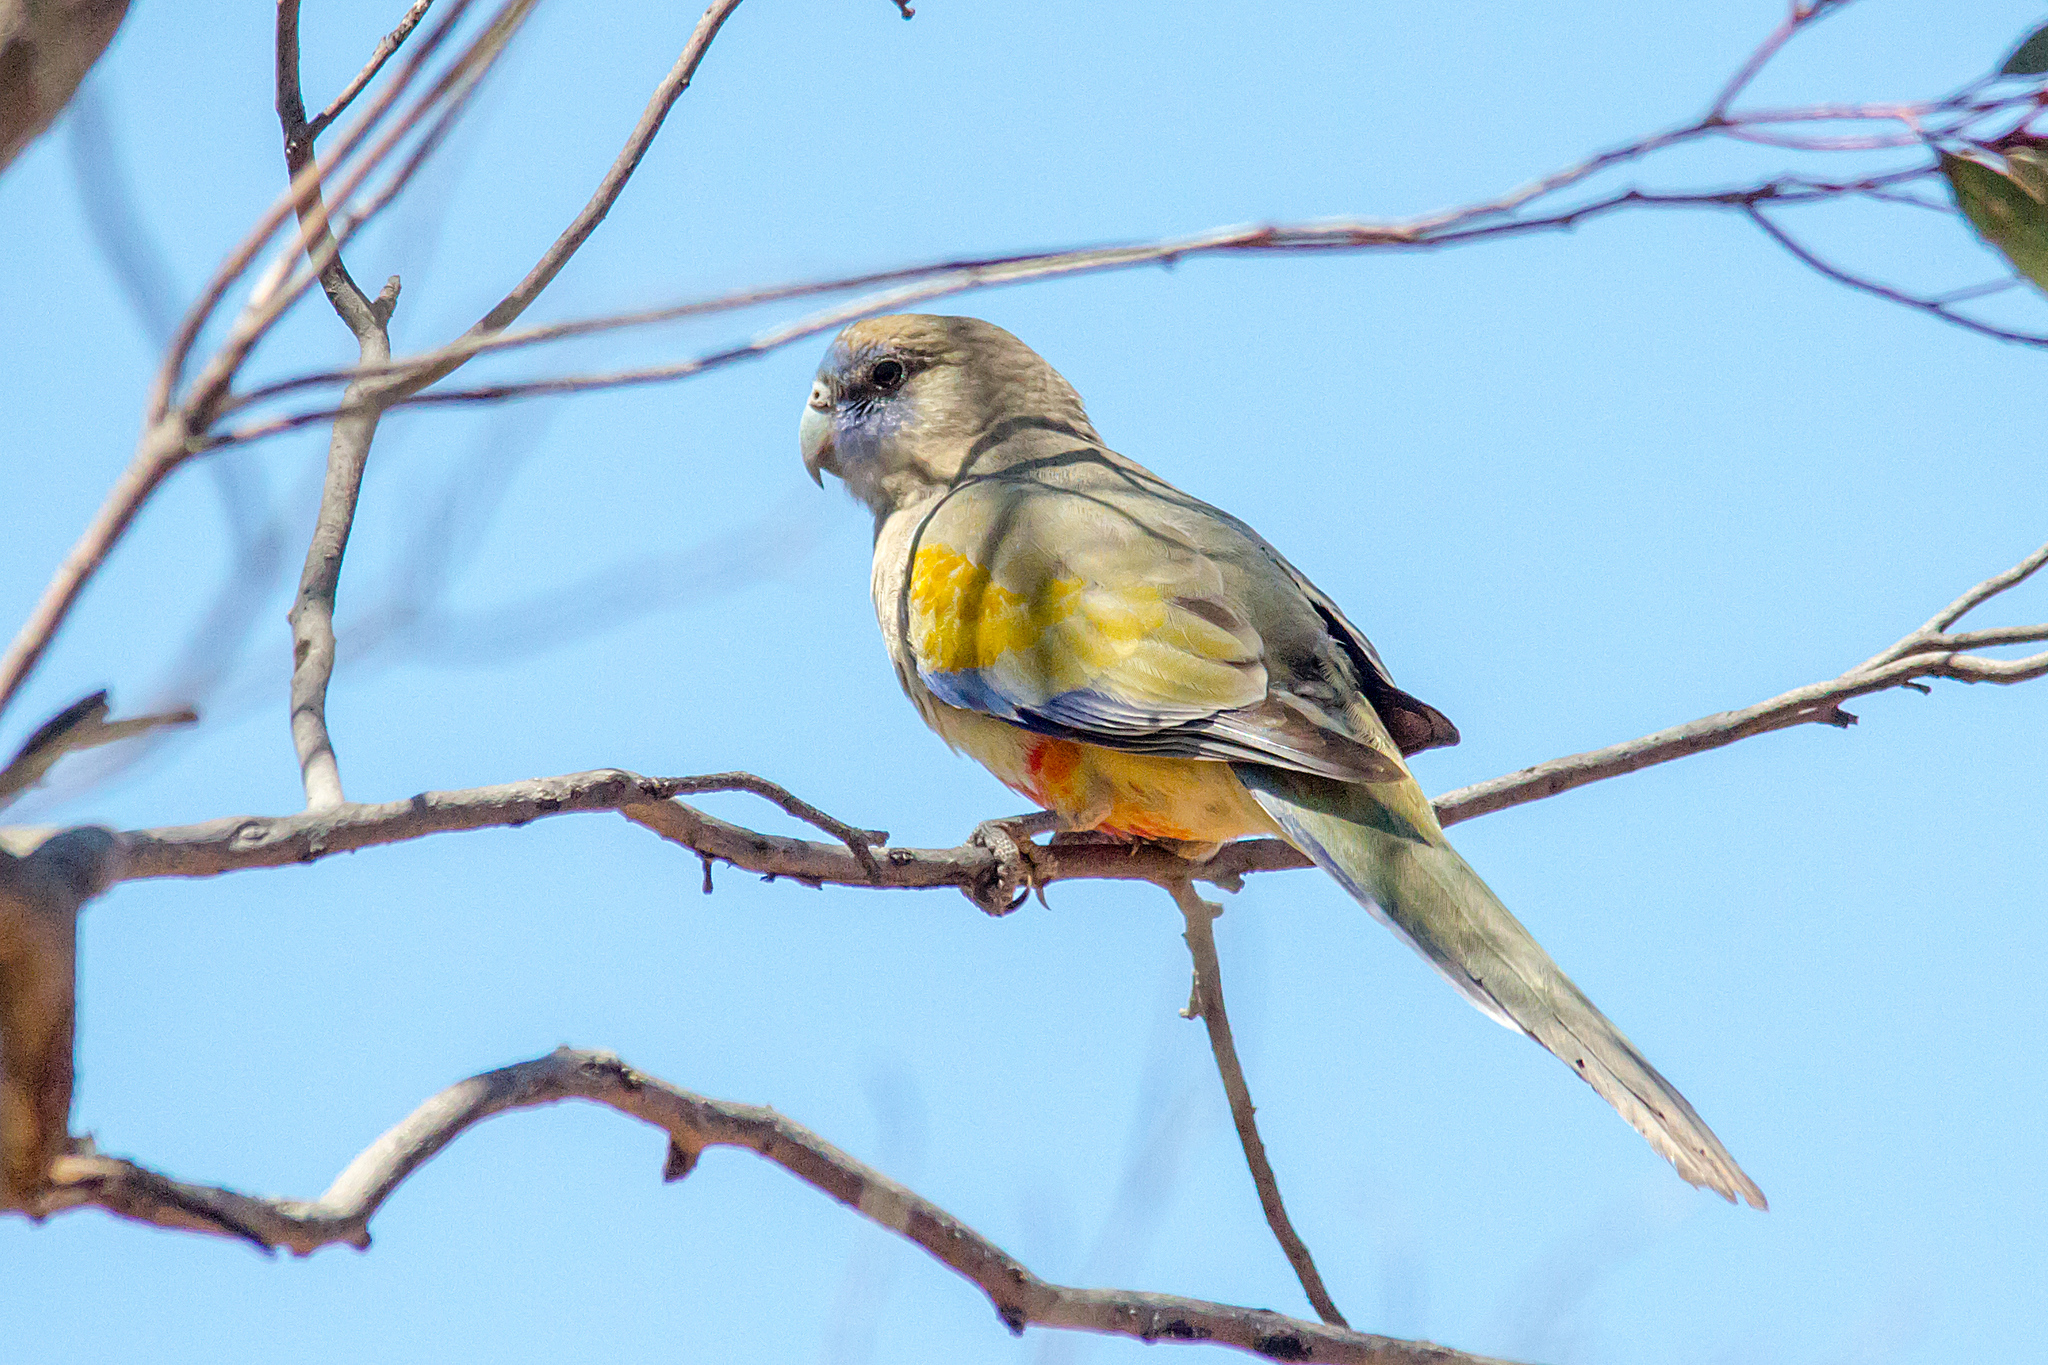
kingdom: Animalia
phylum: Chordata
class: Aves
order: Psittaciformes
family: Psittacidae
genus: Northiella
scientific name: Northiella haematogaster
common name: Bluebonnet
